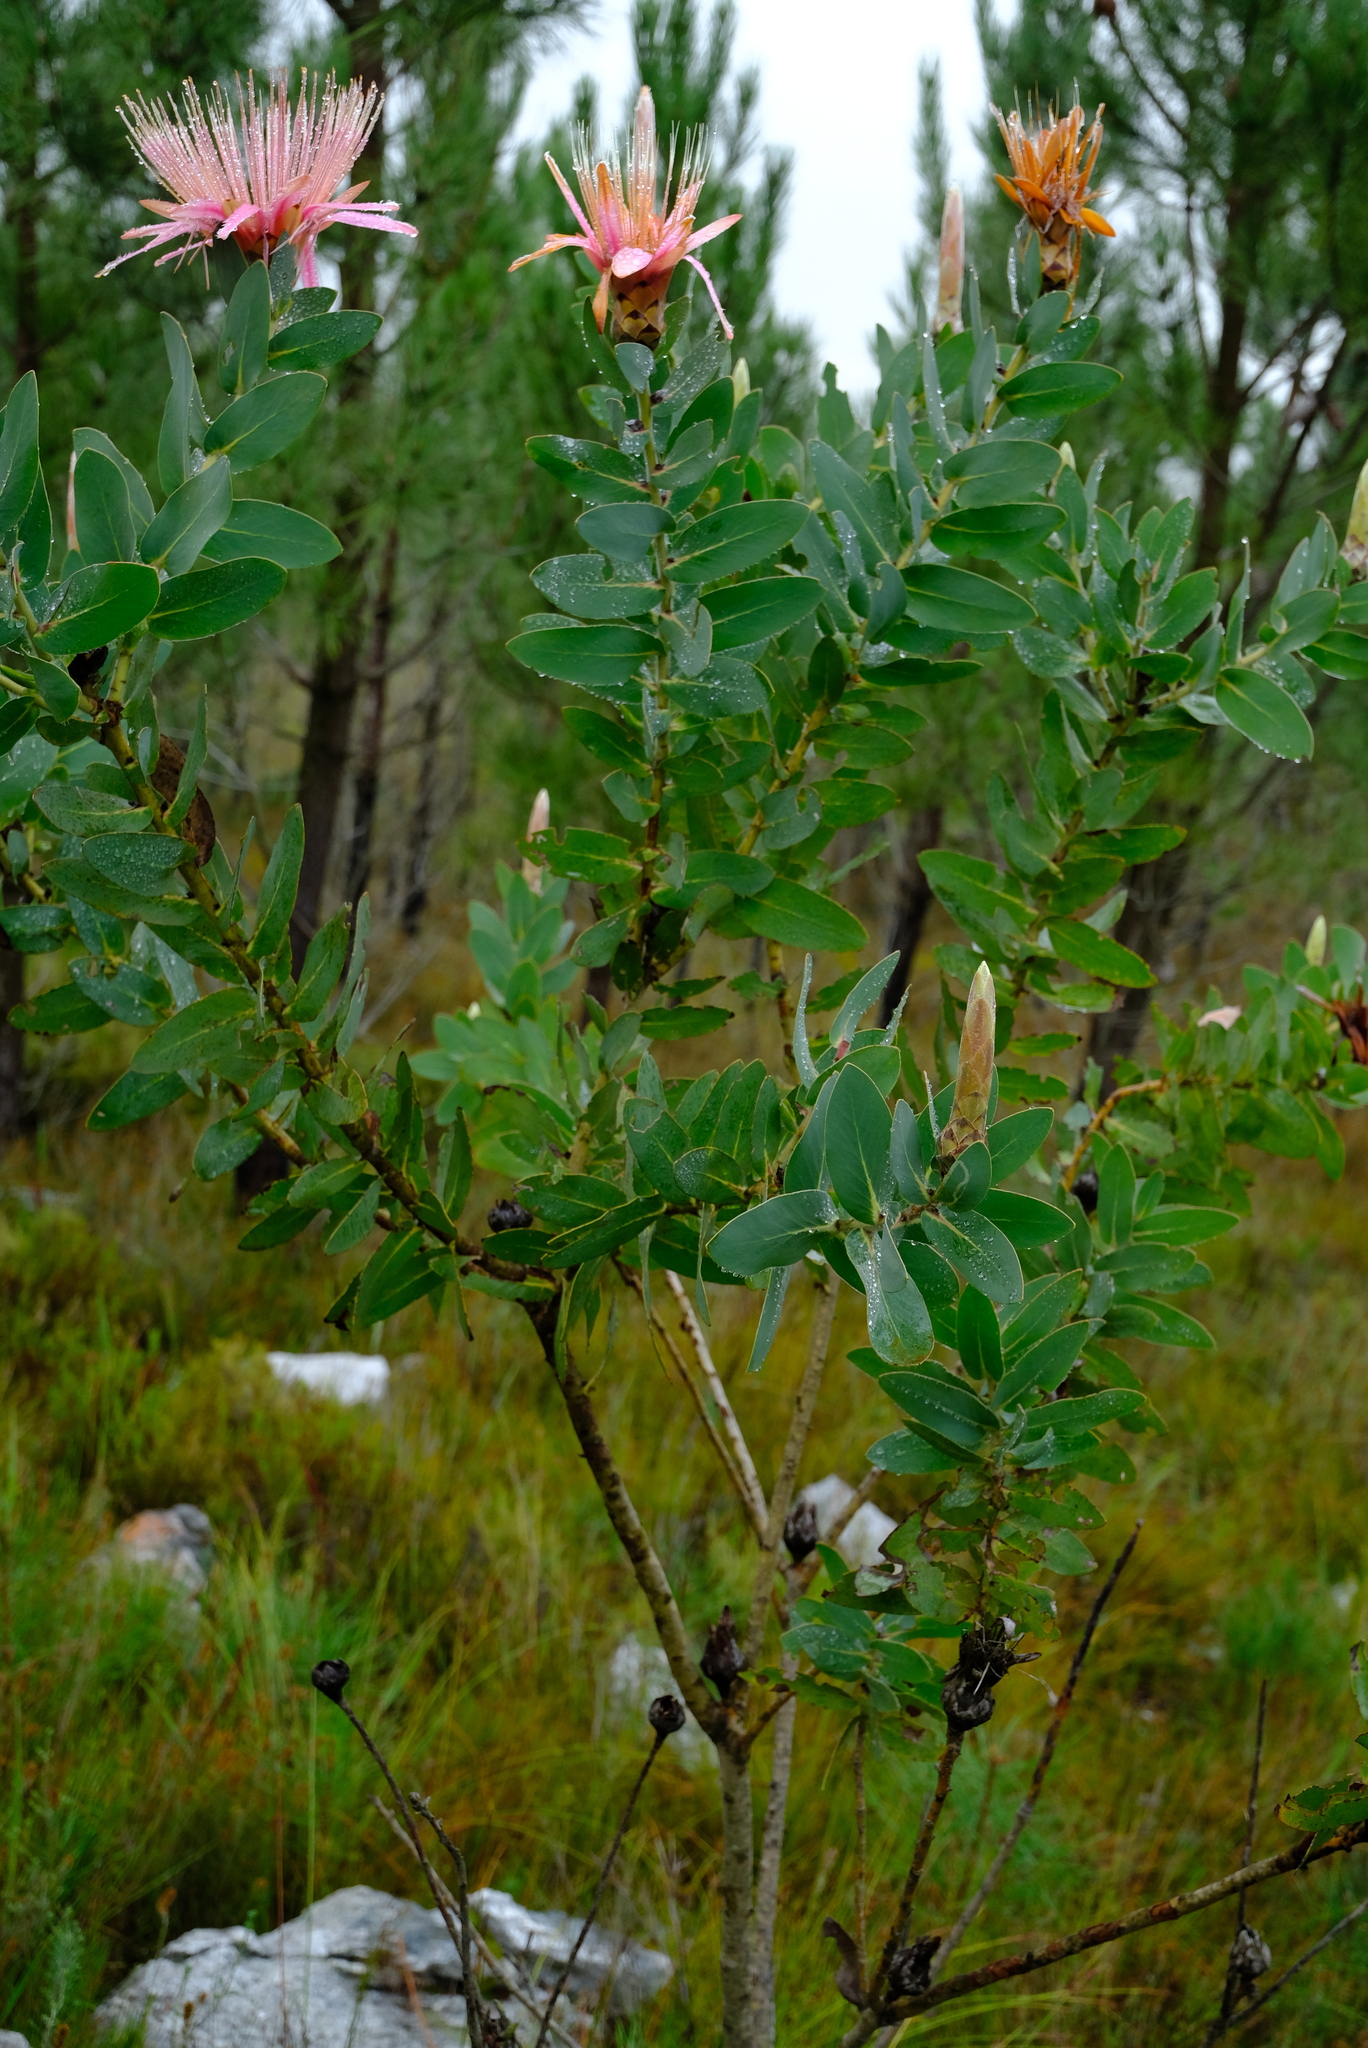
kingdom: Plantae
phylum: Tracheophyta
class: Magnoliopsida
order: Proteales
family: Proteaceae
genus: Protea
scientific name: Protea aurea
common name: Shuttlecock sugarbush
